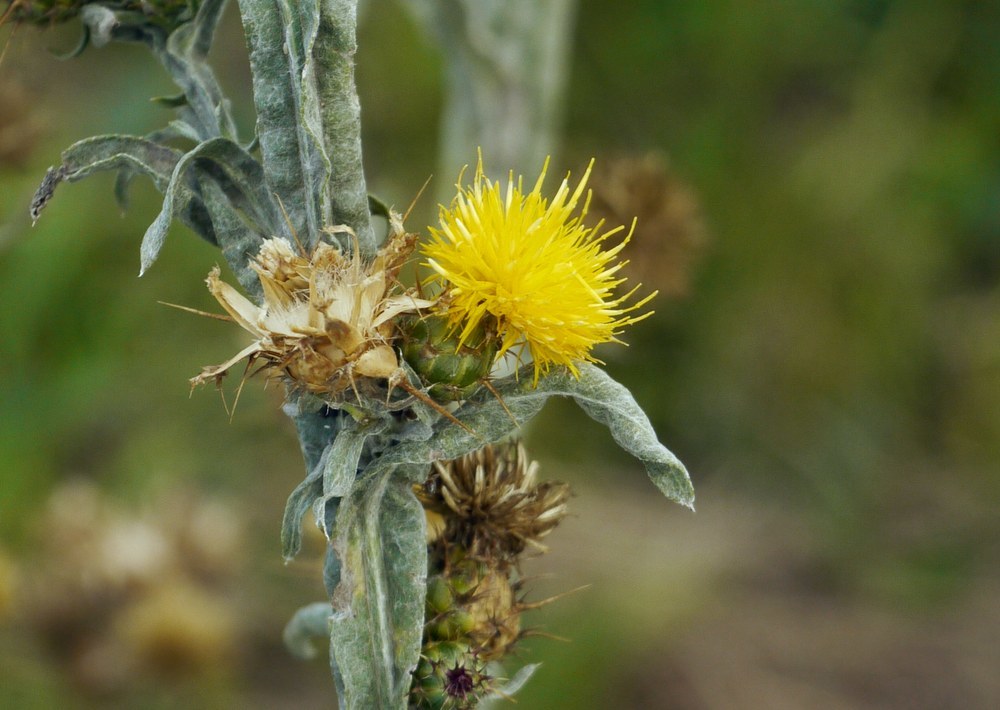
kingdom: Plantae
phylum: Tracheophyta
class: Magnoliopsida
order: Asterales
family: Asteraceae
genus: Centaurea
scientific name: Centaurea solstitialis
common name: Yellow star-thistle
